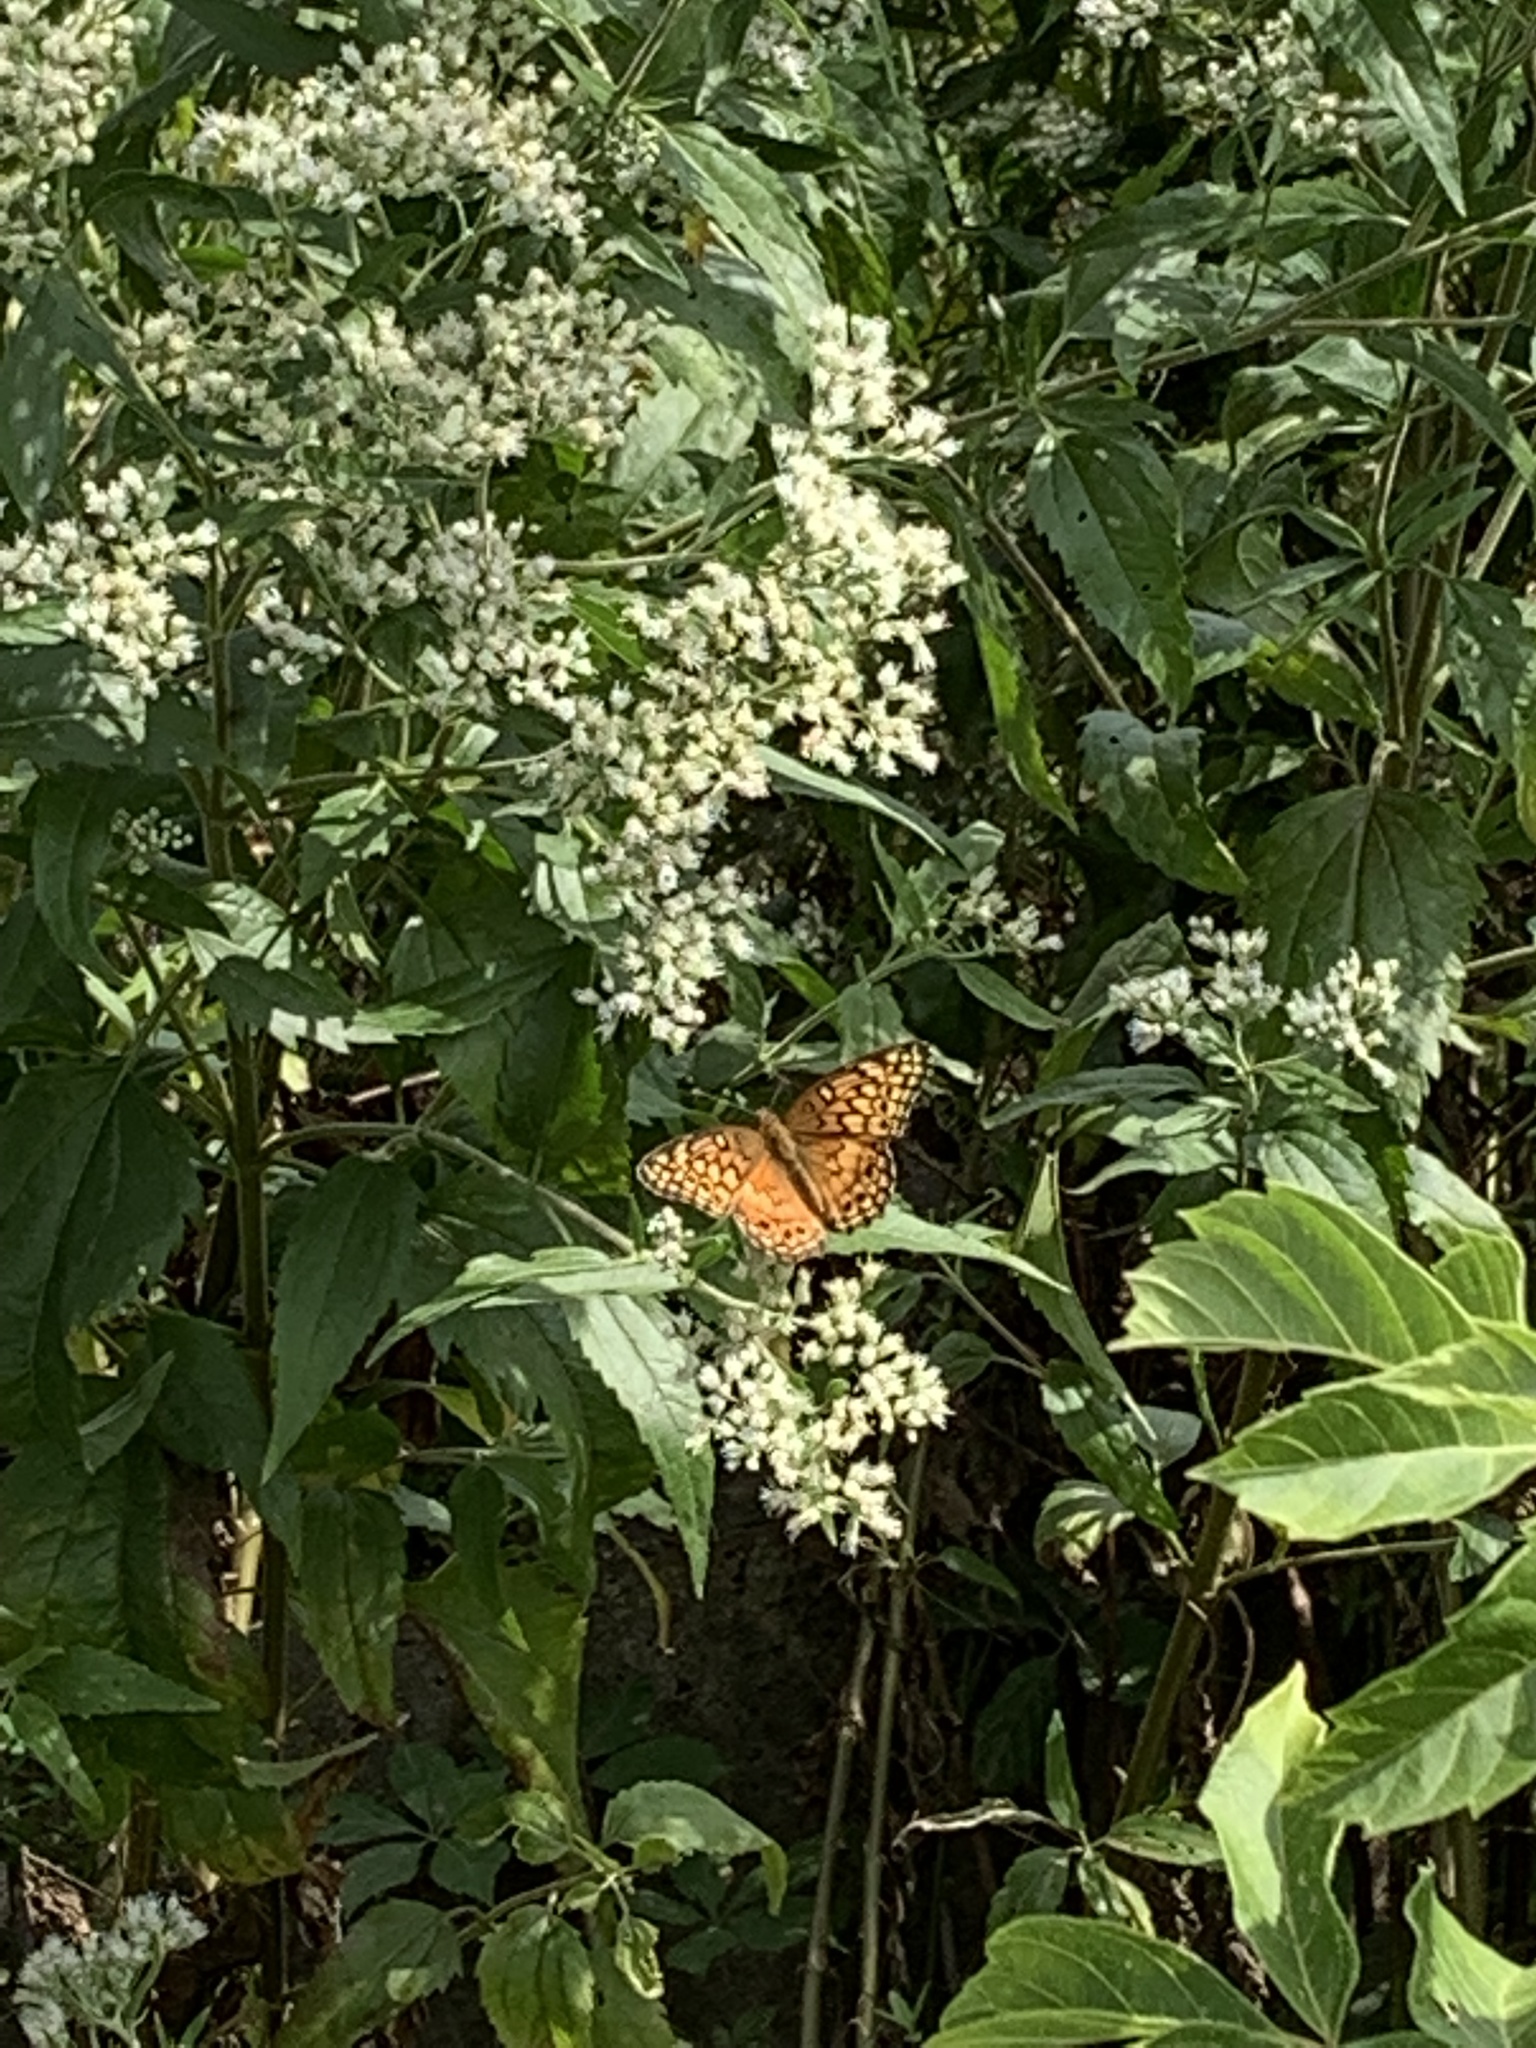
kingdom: Animalia
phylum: Arthropoda
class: Insecta
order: Lepidoptera
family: Nymphalidae
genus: Euptoieta
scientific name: Euptoieta claudia
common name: Variegated fritillary
